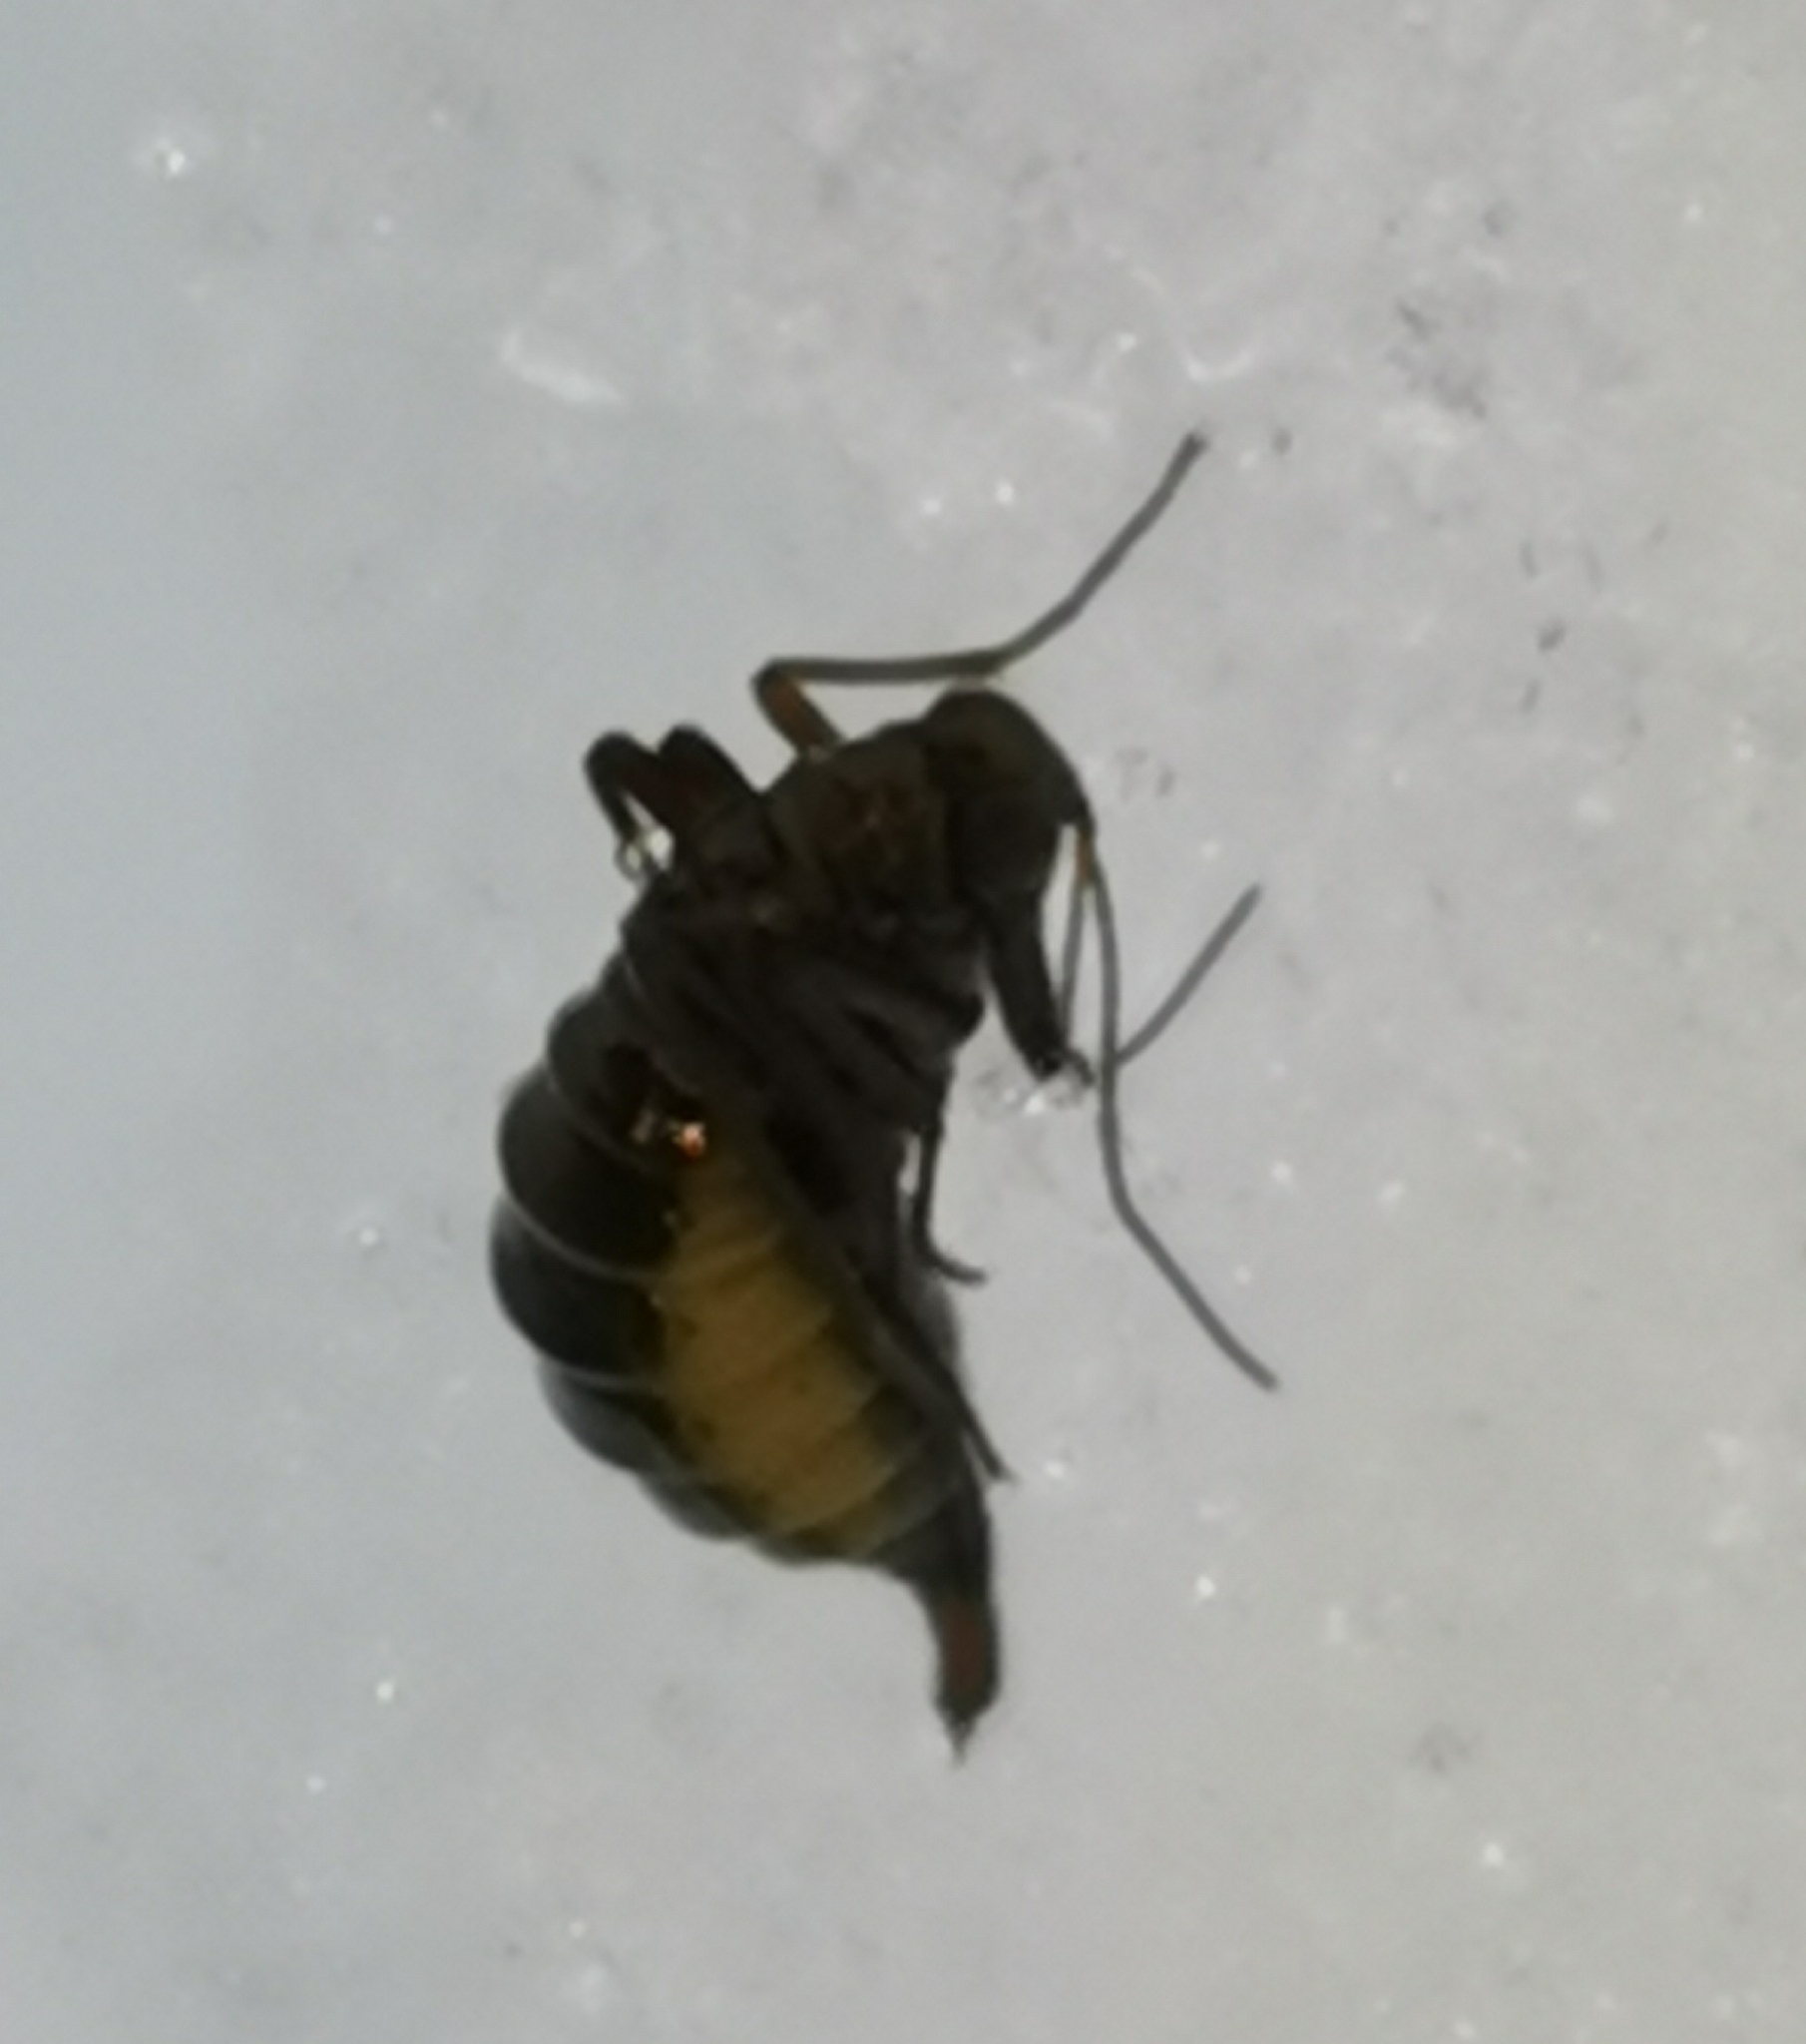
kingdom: Animalia
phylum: Arthropoda
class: Insecta
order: Mecoptera
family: Boreidae
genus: Boreus
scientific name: Boreus westwoodi
